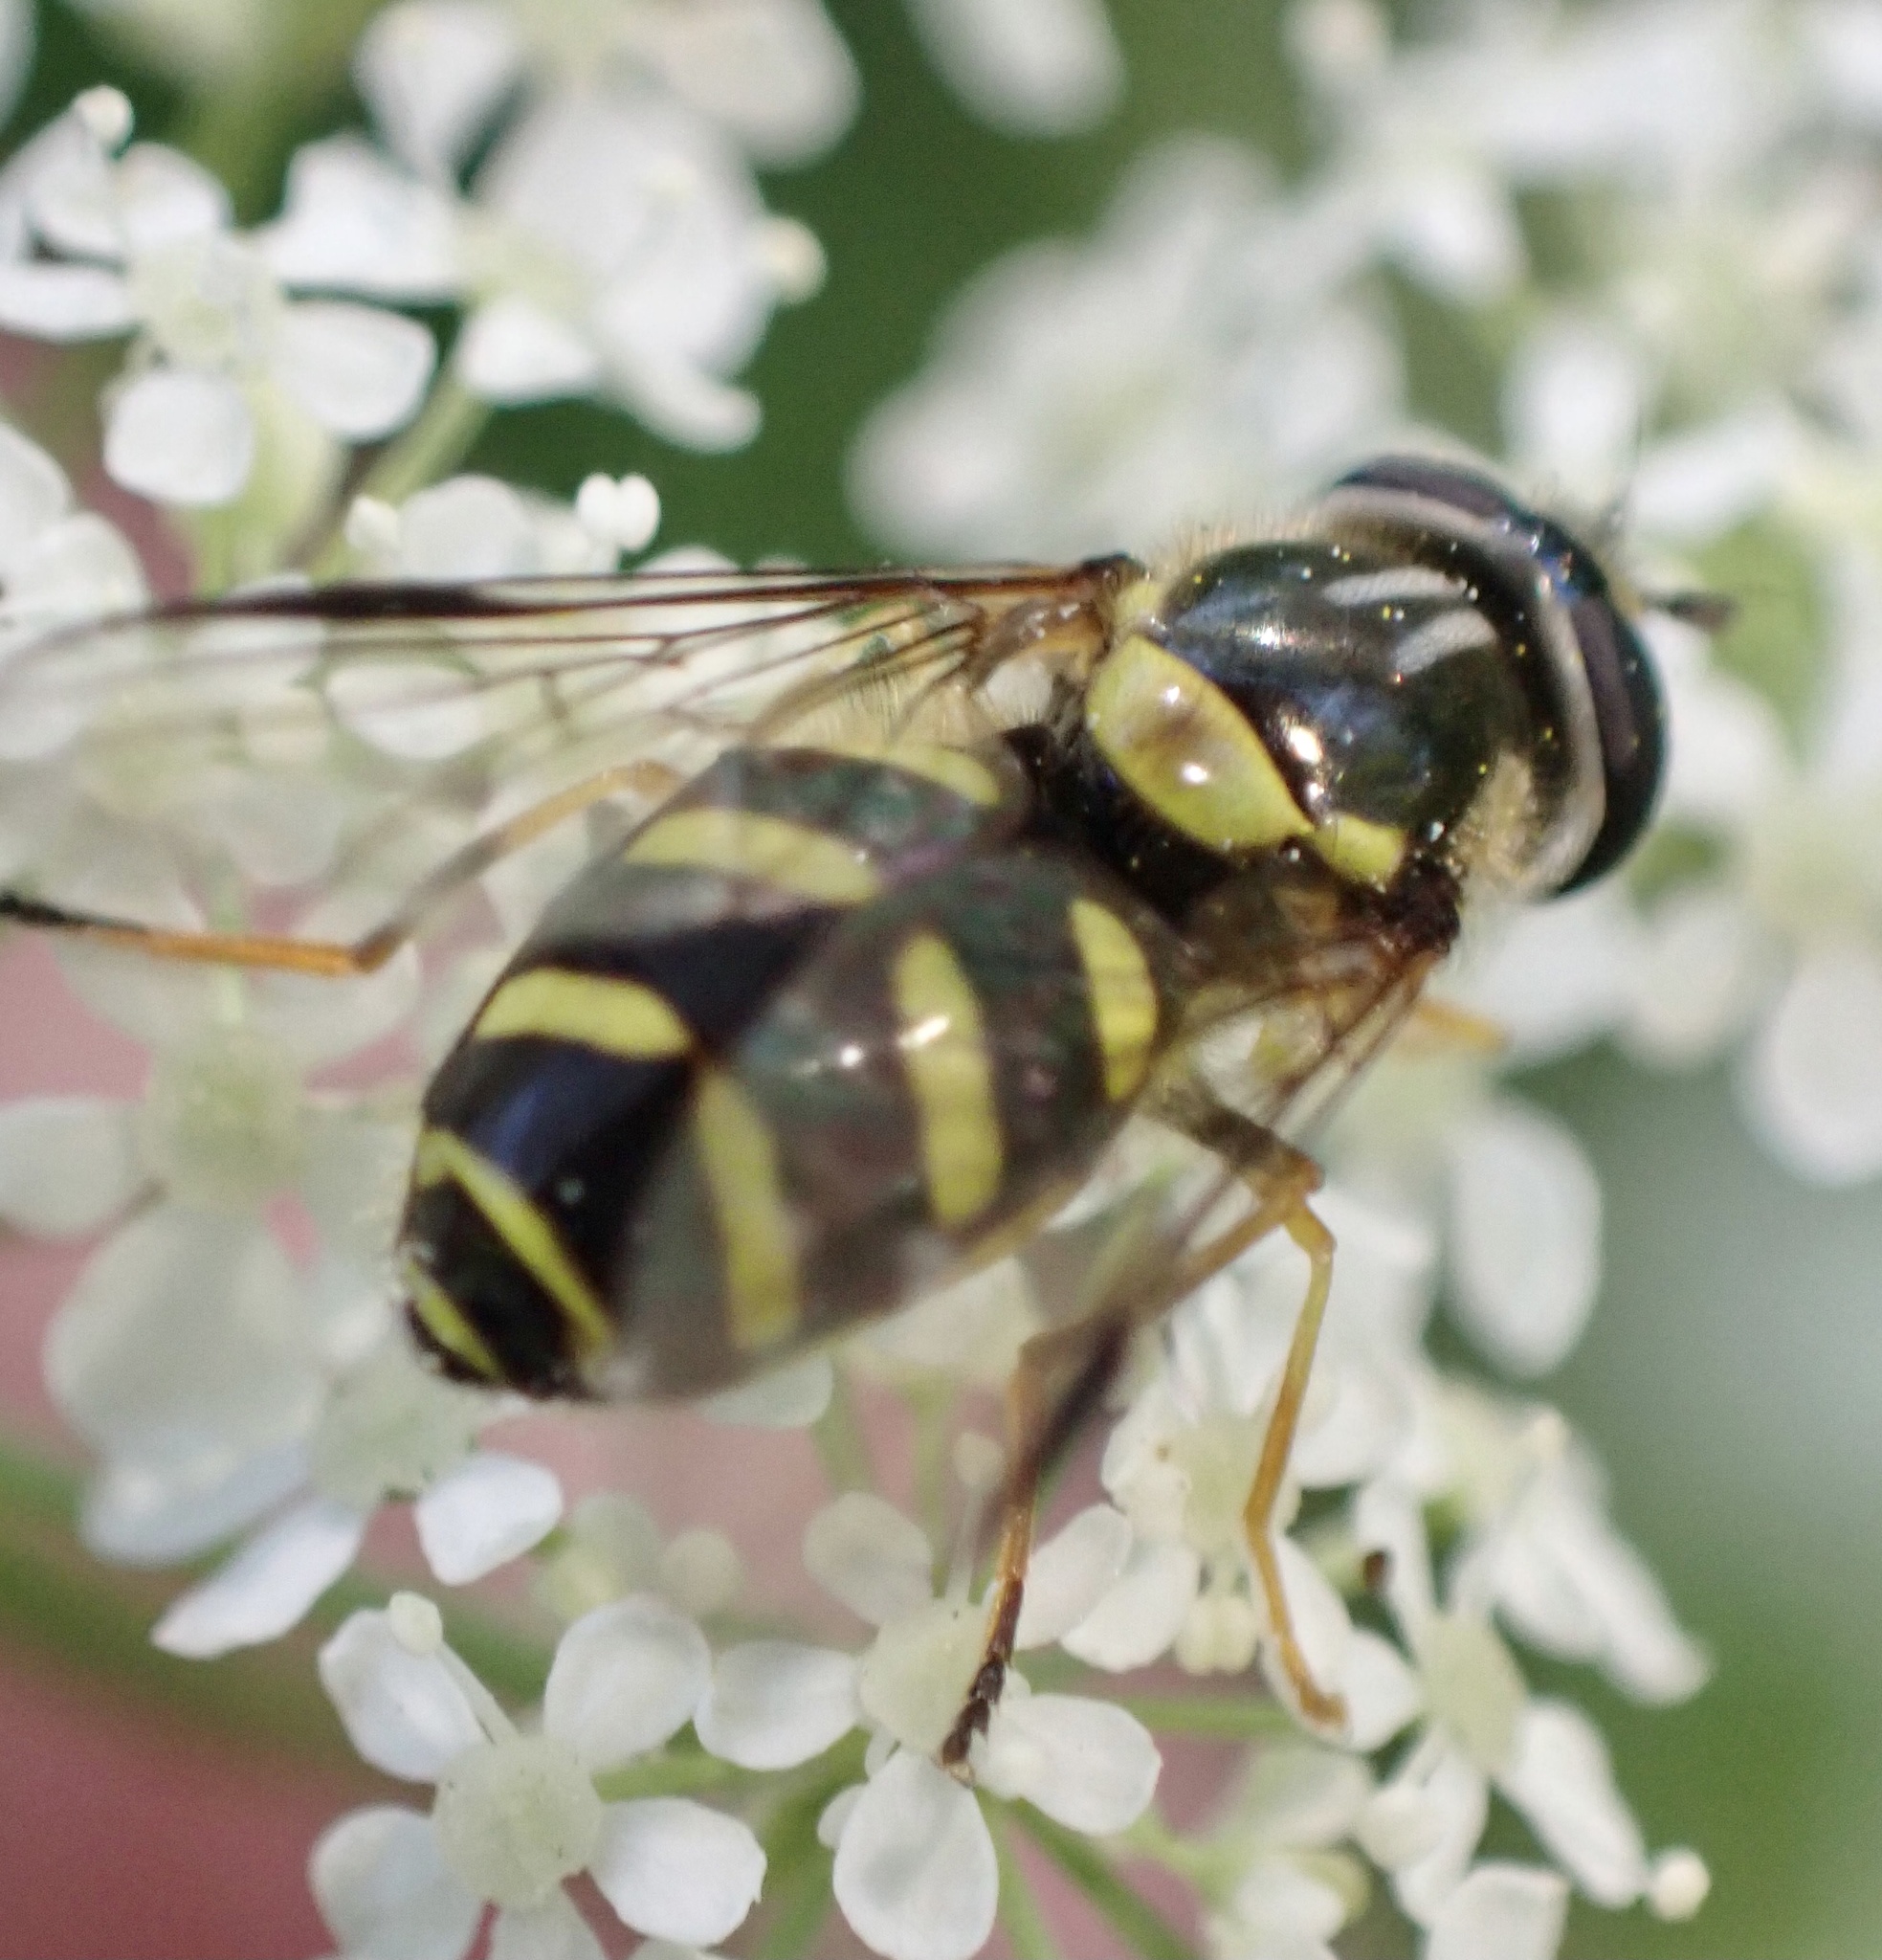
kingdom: Animalia
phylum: Arthropoda
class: Insecta
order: Diptera
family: Syrphidae
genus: Dasysyrphus
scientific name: Dasysyrphus albostriatus
